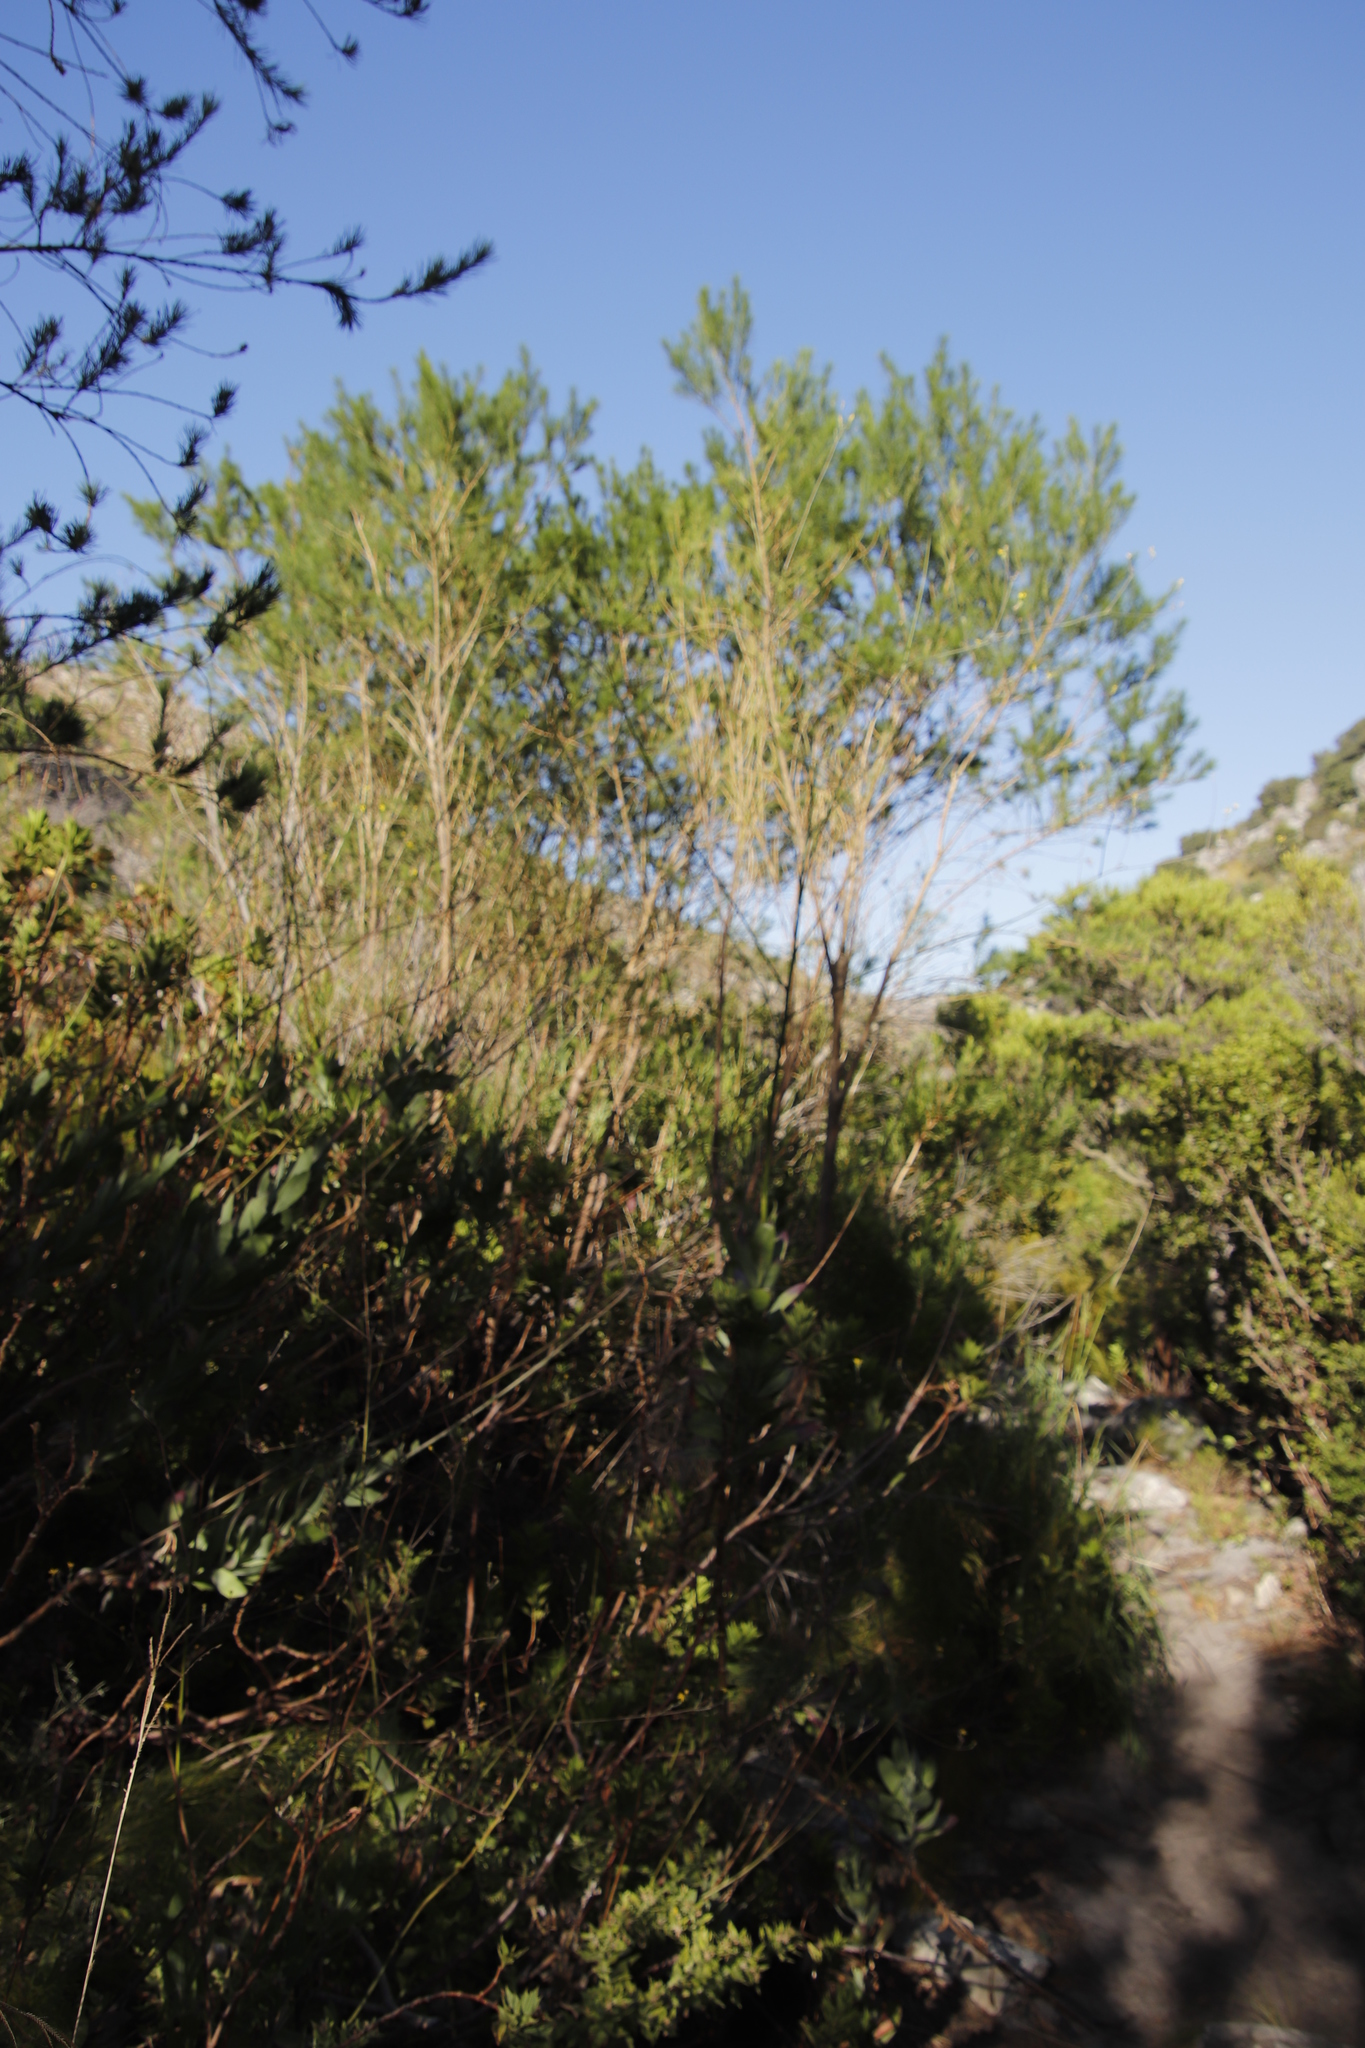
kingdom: Plantae
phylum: Tracheophyta
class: Magnoliopsida
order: Fabales
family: Fabaceae
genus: Psoralea
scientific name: Psoralea pinnata
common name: African scurfpea
